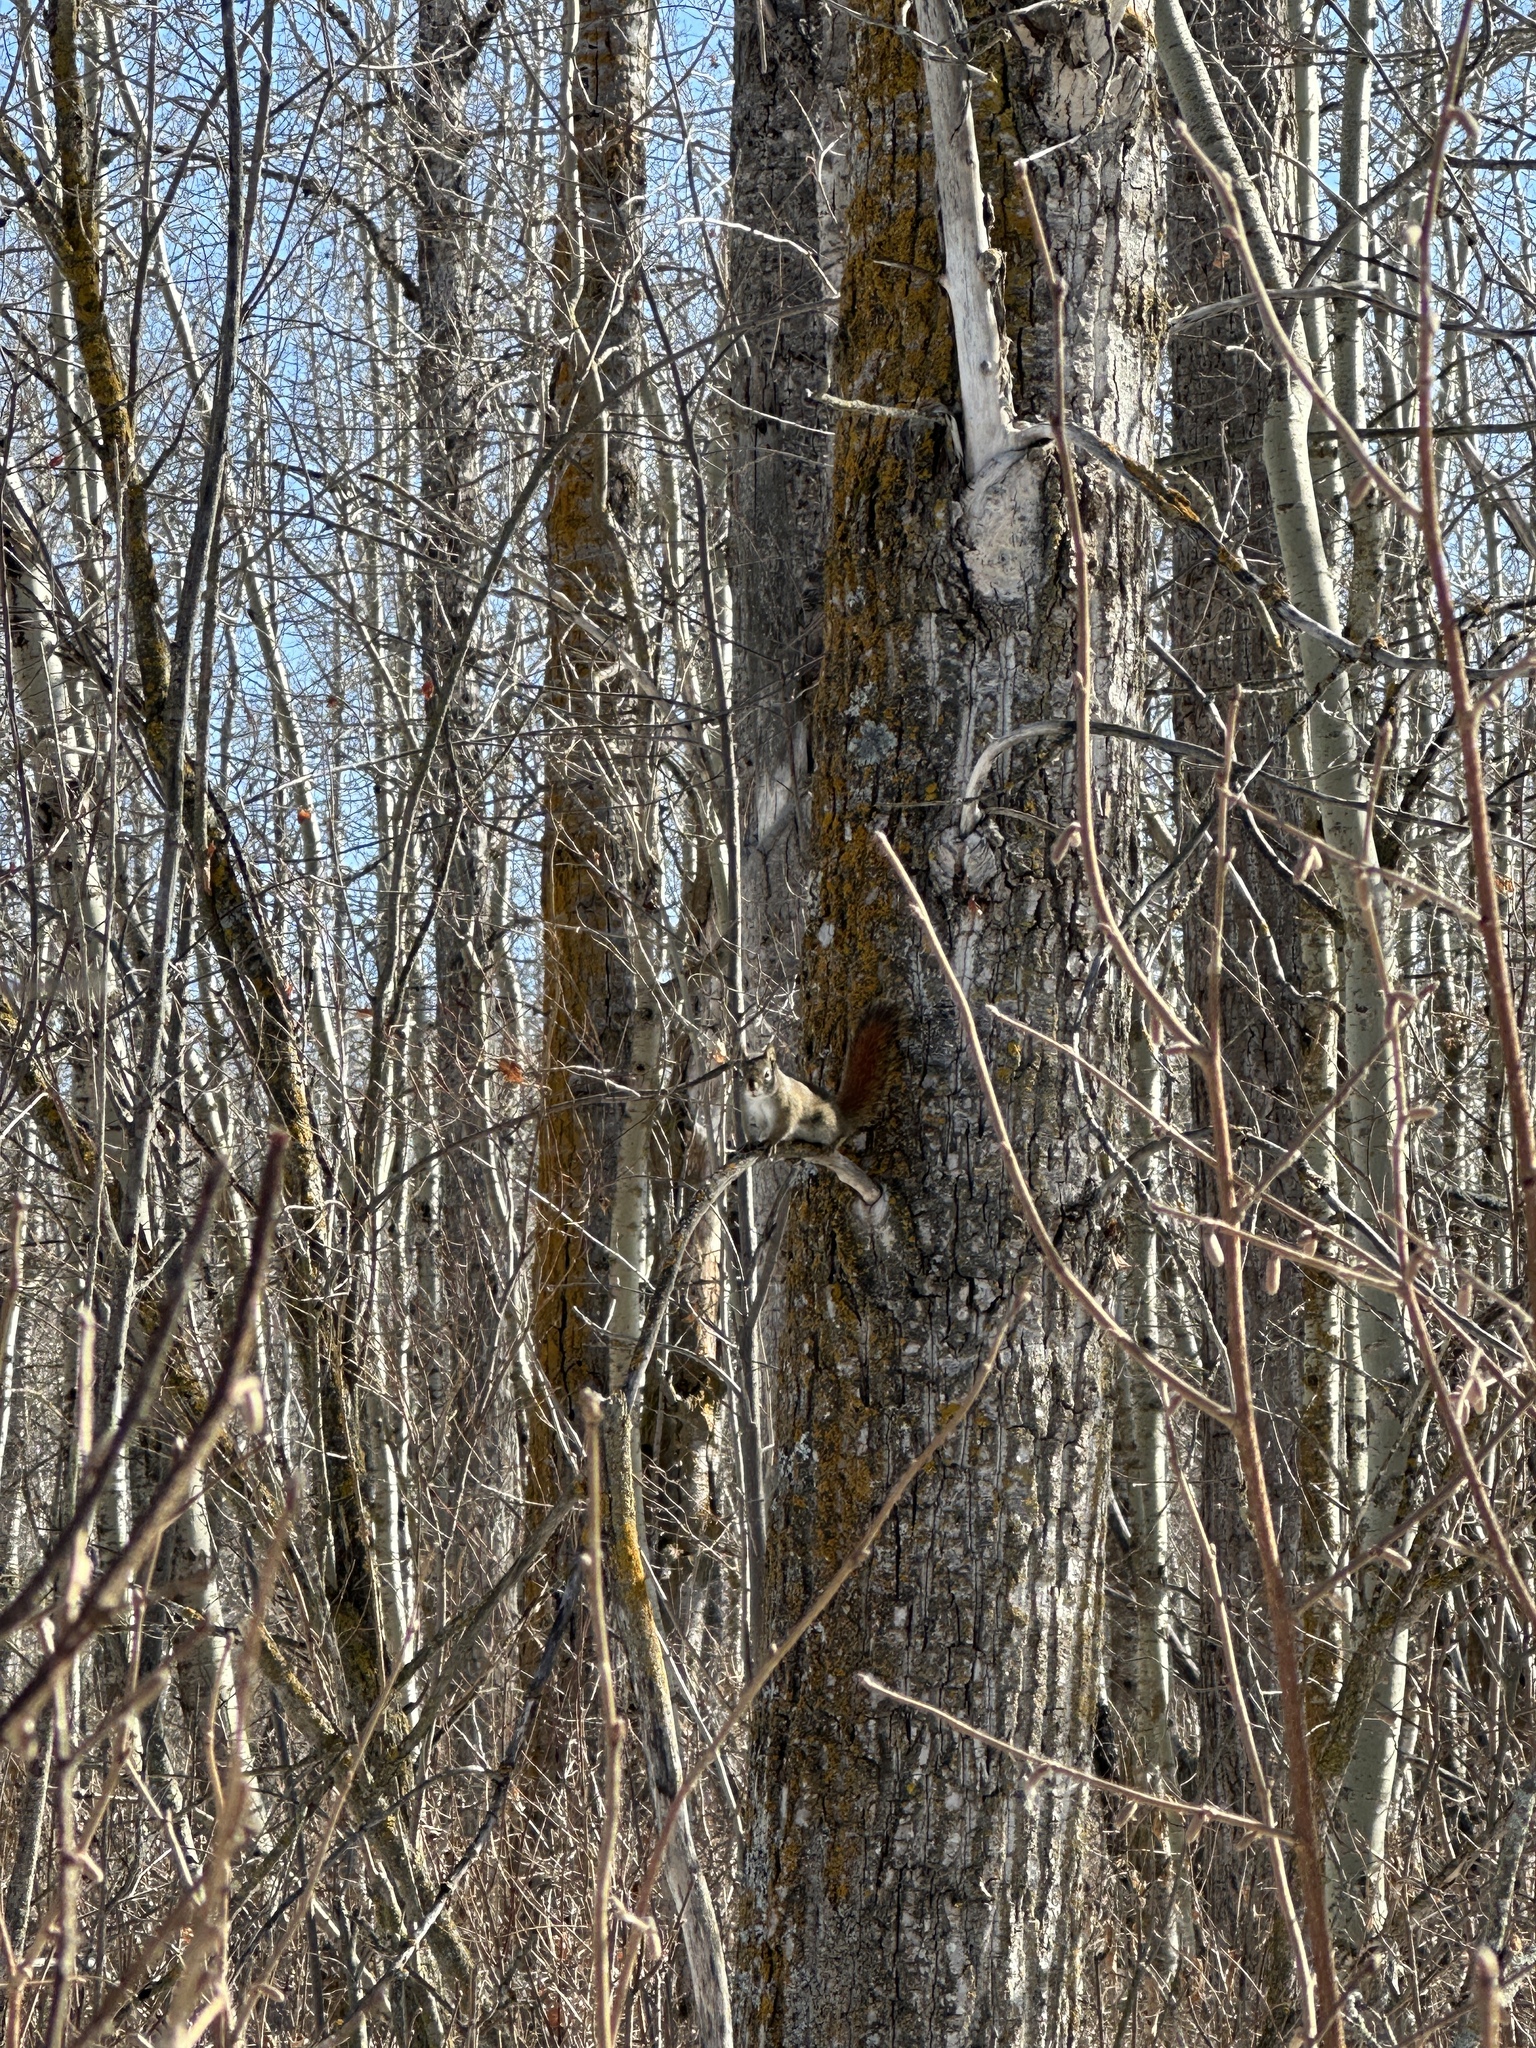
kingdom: Animalia
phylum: Chordata
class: Mammalia
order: Rodentia
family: Sciuridae
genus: Tamiasciurus
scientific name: Tamiasciurus hudsonicus
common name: Red squirrel
